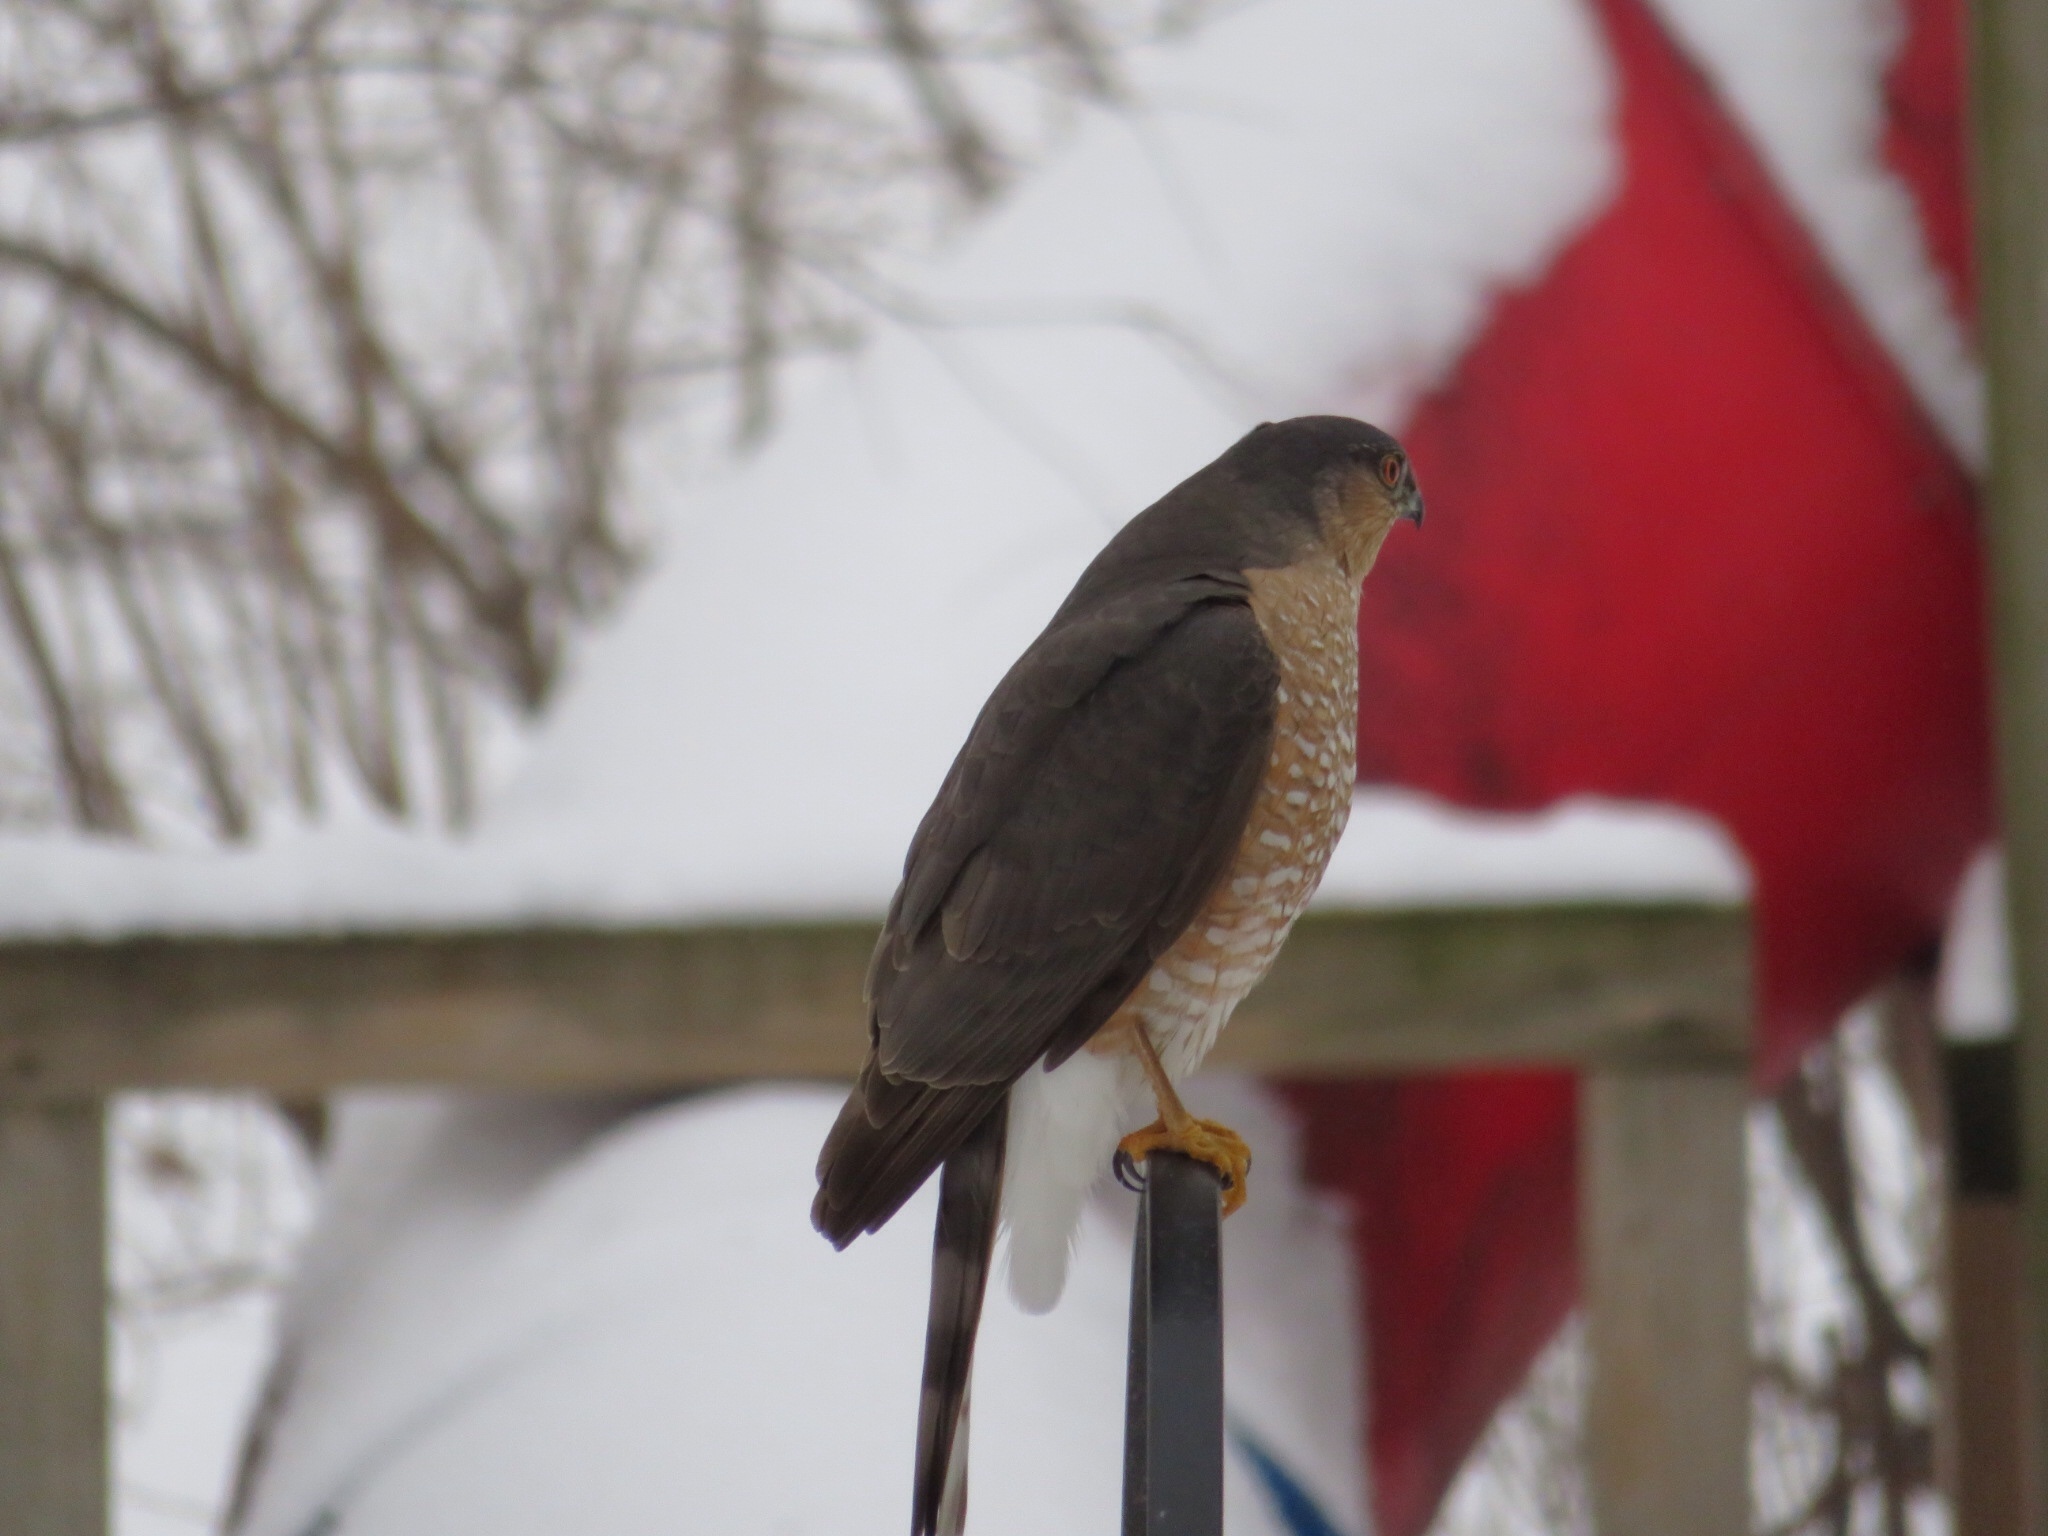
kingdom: Animalia
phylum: Chordata
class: Aves
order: Accipitriformes
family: Accipitridae
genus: Accipiter
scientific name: Accipiter striatus
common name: Sharp-shinned hawk
